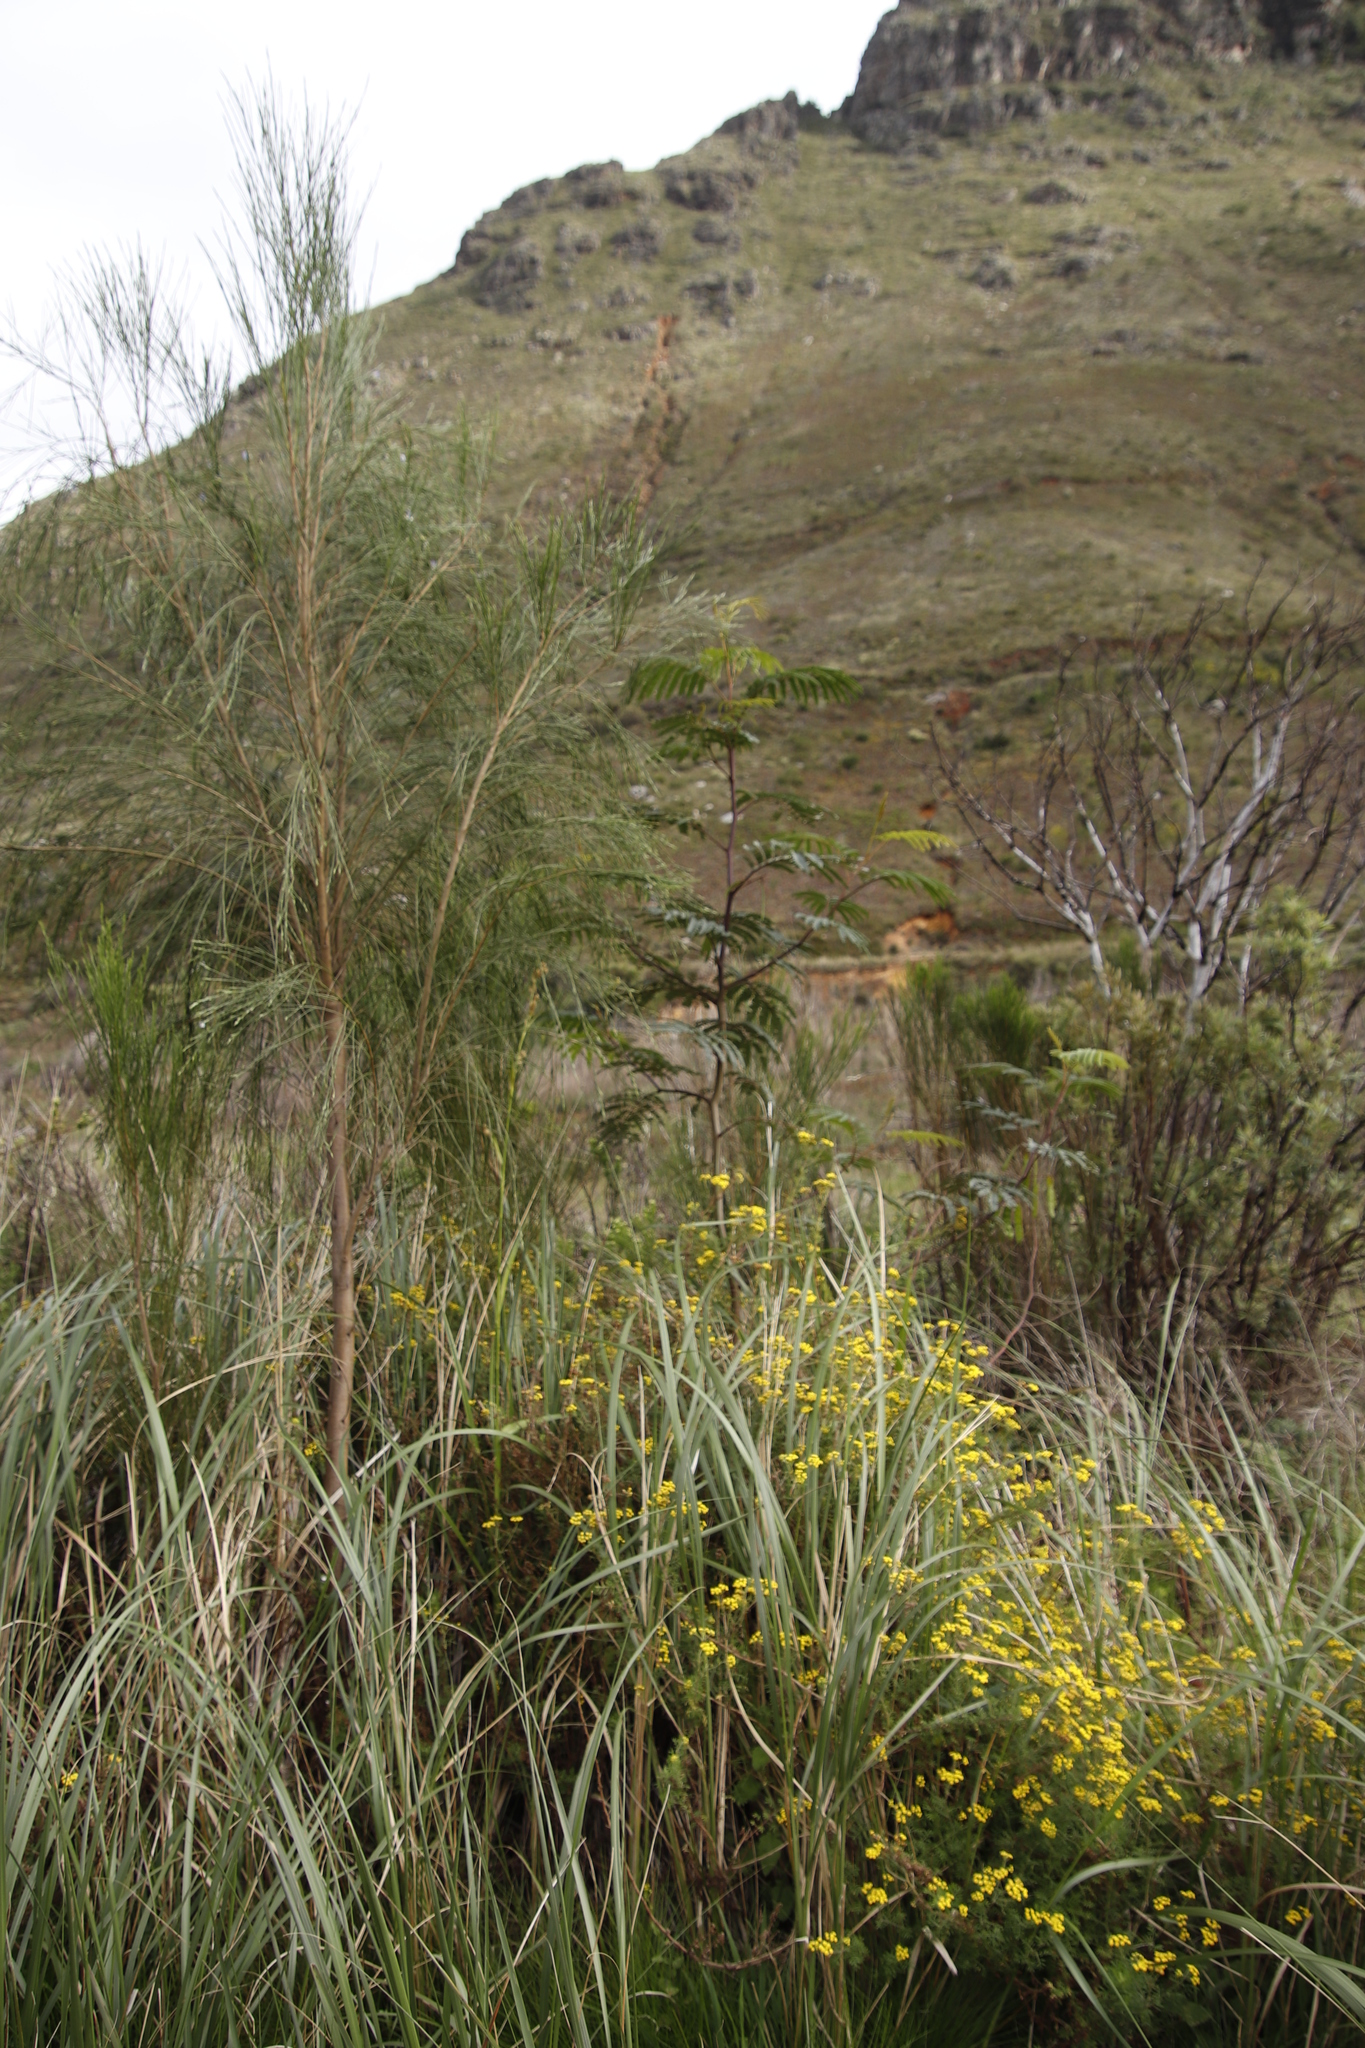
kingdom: Plantae
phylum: Tracheophyta
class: Magnoliopsida
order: Fabales
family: Fabaceae
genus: Paraserianthes
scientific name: Paraserianthes lophantha
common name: Plume albizia
